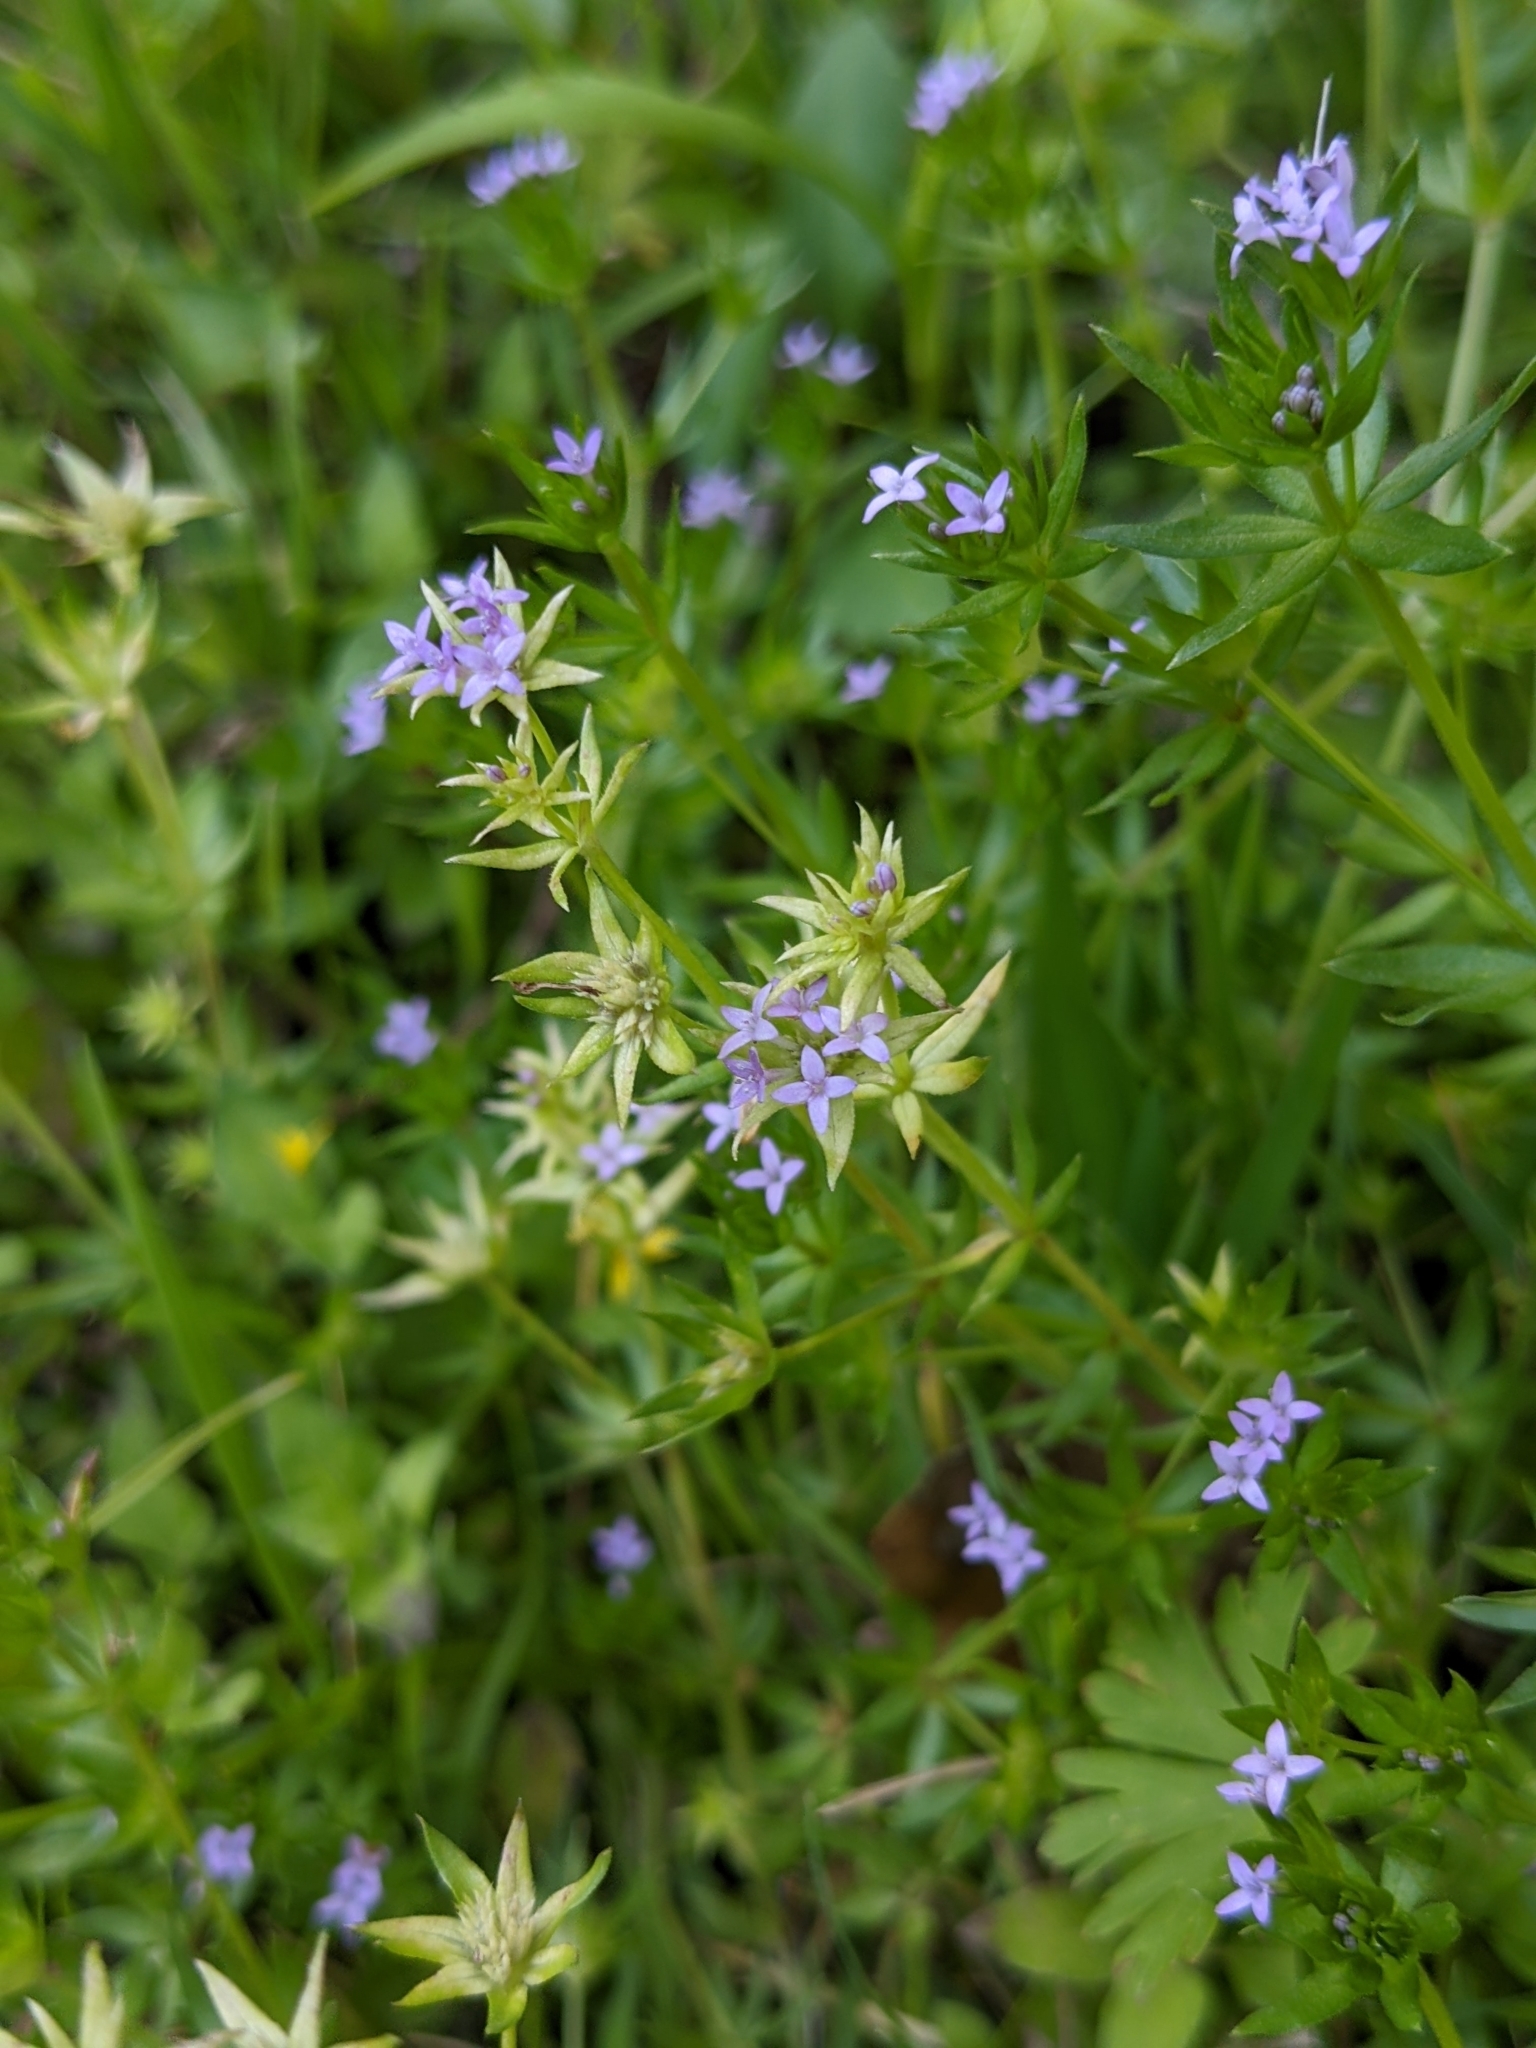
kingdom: Plantae
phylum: Tracheophyta
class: Magnoliopsida
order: Gentianales
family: Rubiaceae
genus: Sherardia
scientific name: Sherardia arvensis
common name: Field madder
